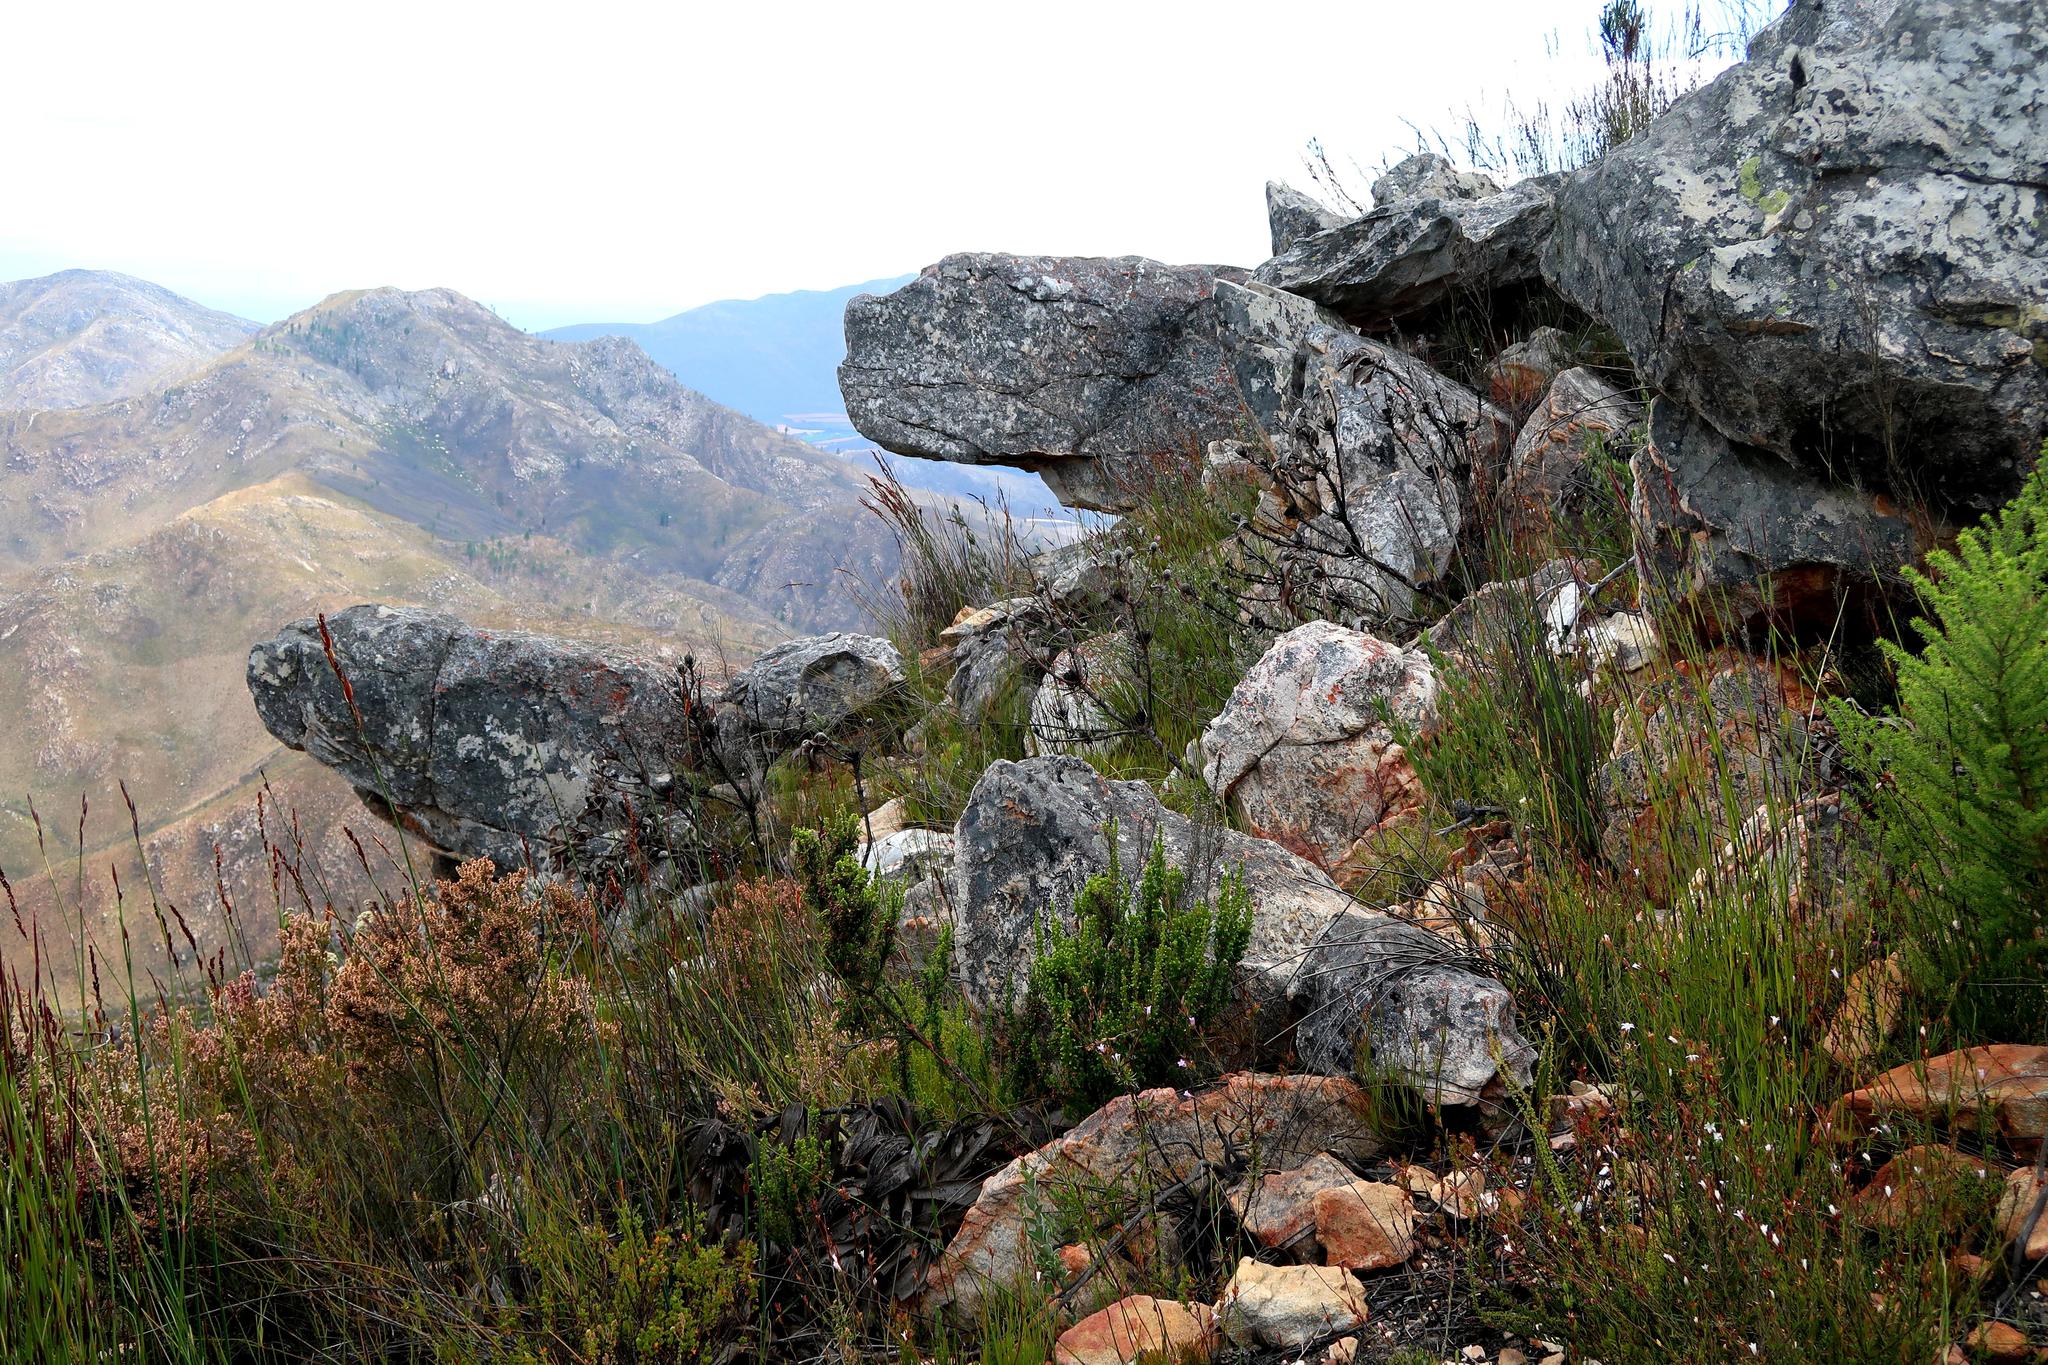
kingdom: Plantae
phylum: Tracheophyta
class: Magnoliopsida
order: Ericales
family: Ericaceae
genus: Erica
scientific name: Erica uberiflora
